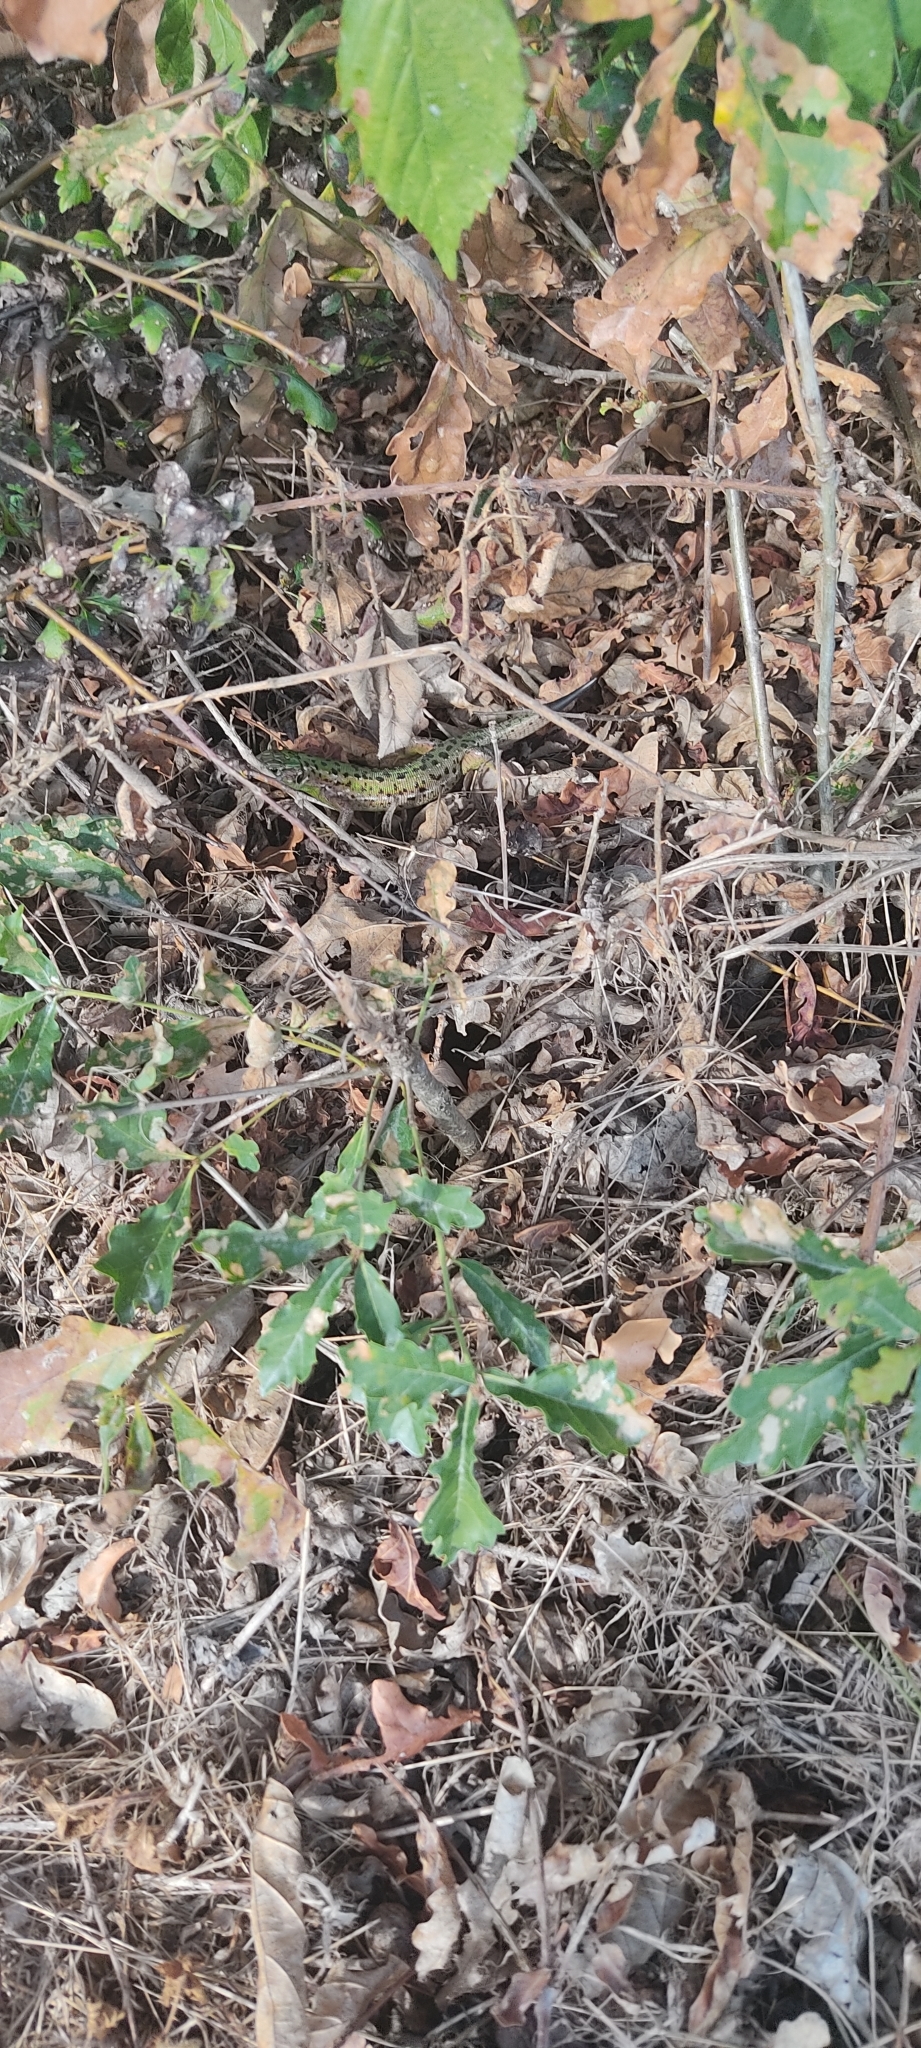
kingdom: Animalia
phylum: Chordata
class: Squamata
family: Lacertidae
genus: Lacerta
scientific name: Lacerta bilineata
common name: Western green lizard
